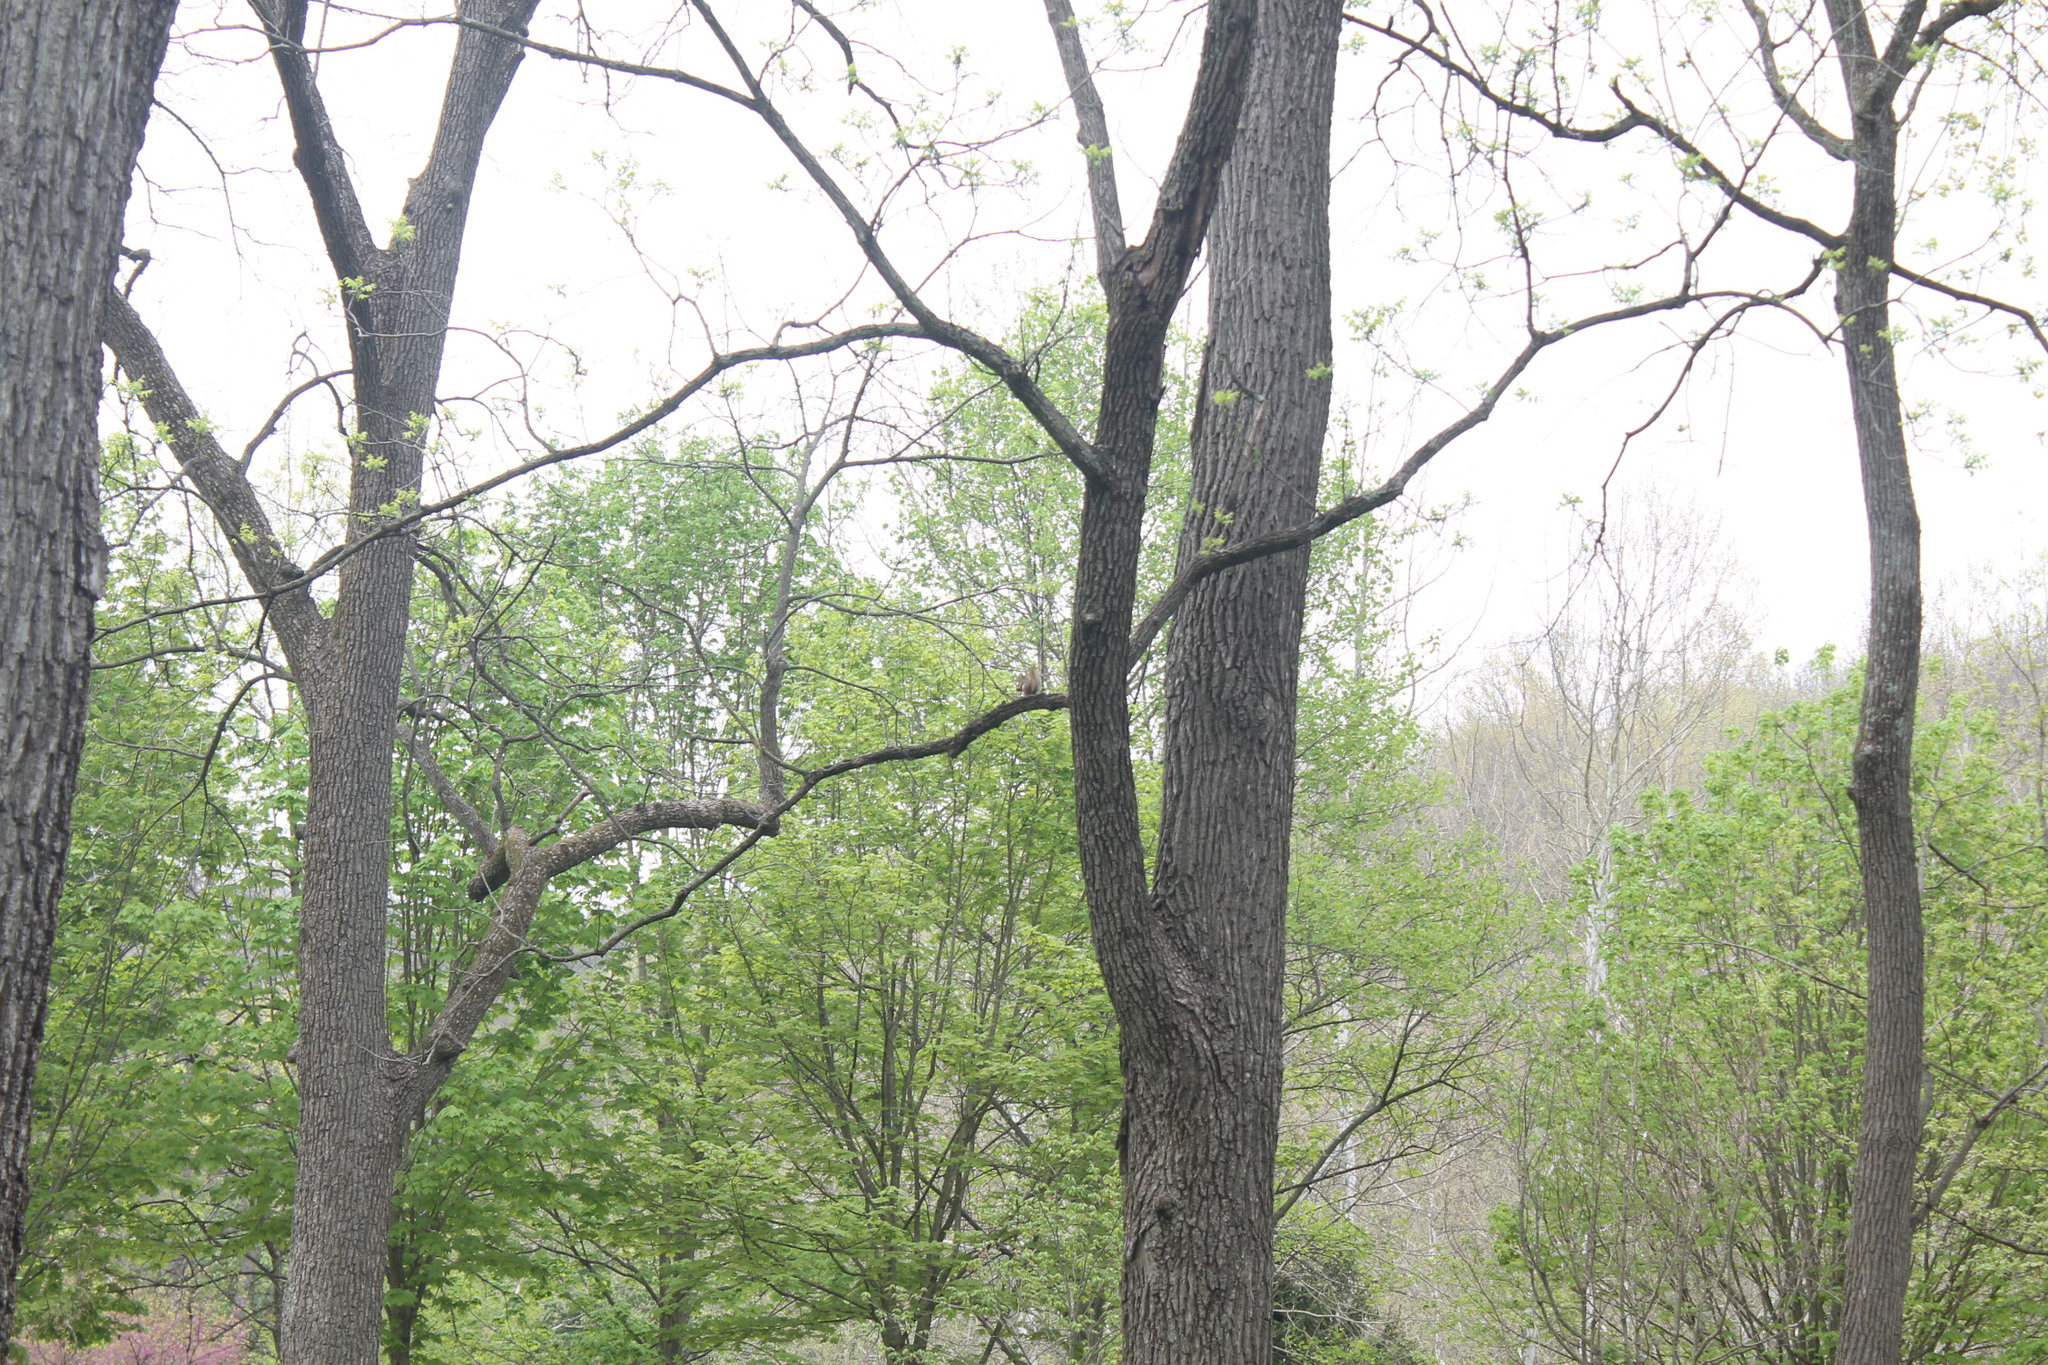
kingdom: Animalia
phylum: Chordata
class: Mammalia
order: Rodentia
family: Sciuridae
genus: Tamiasciurus
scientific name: Tamiasciurus hudsonicus
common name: Red squirrel
